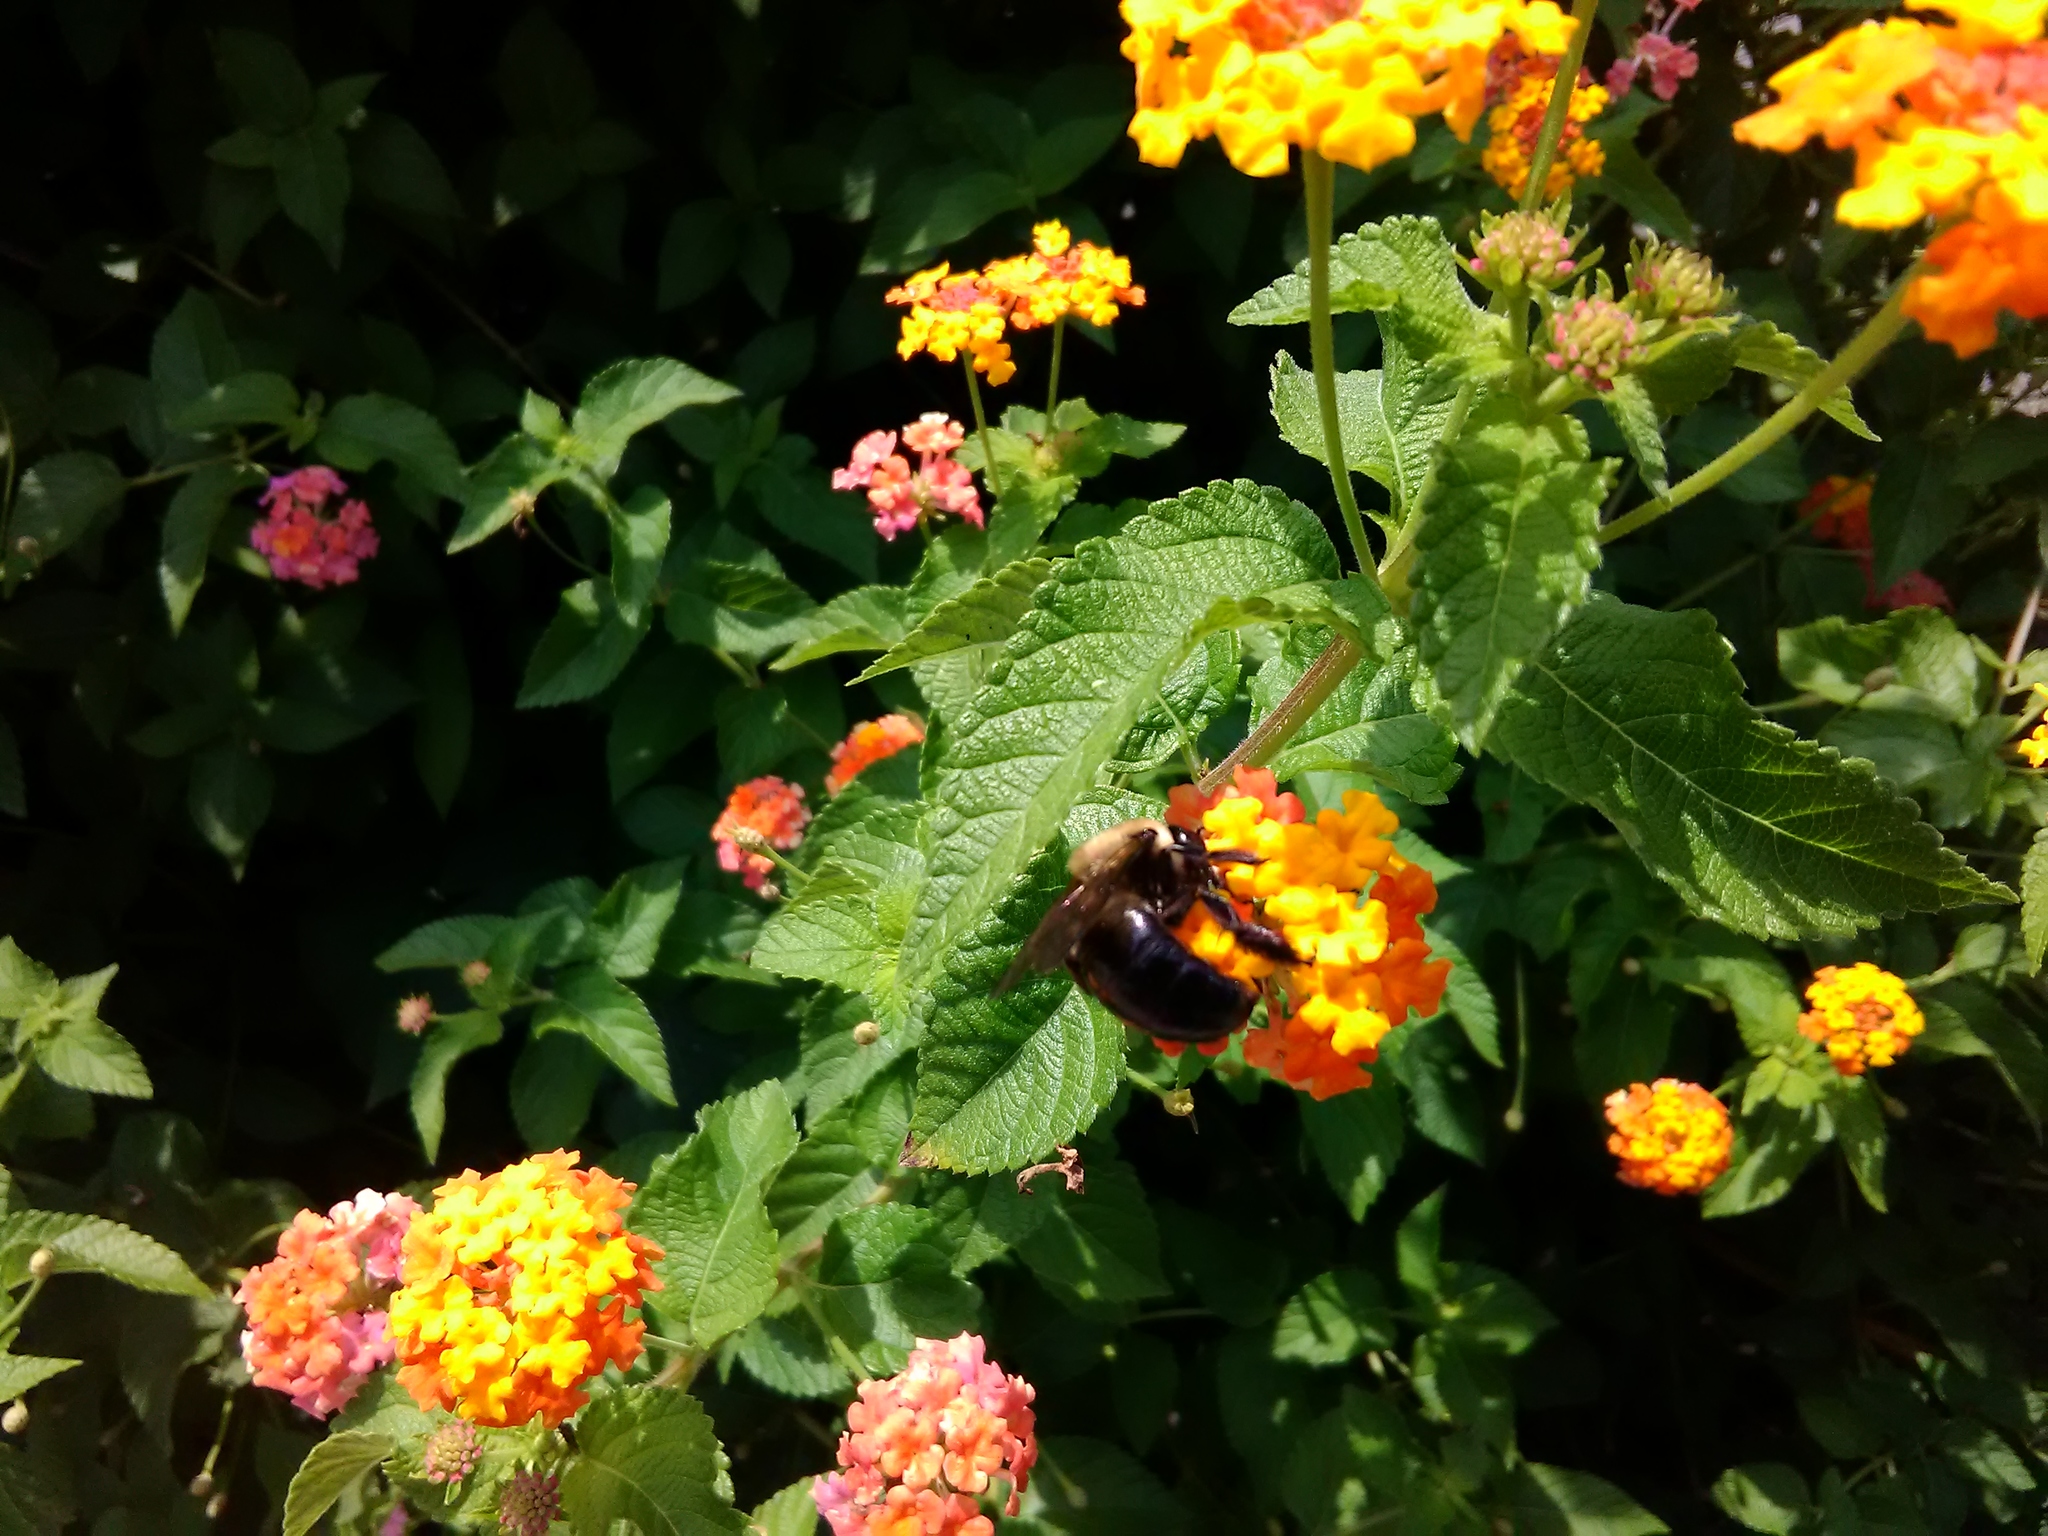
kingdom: Animalia
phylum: Arthropoda
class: Insecta
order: Hymenoptera
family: Apidae
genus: Xylocopa
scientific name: Xylocopa virginica
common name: Carpenter bee
